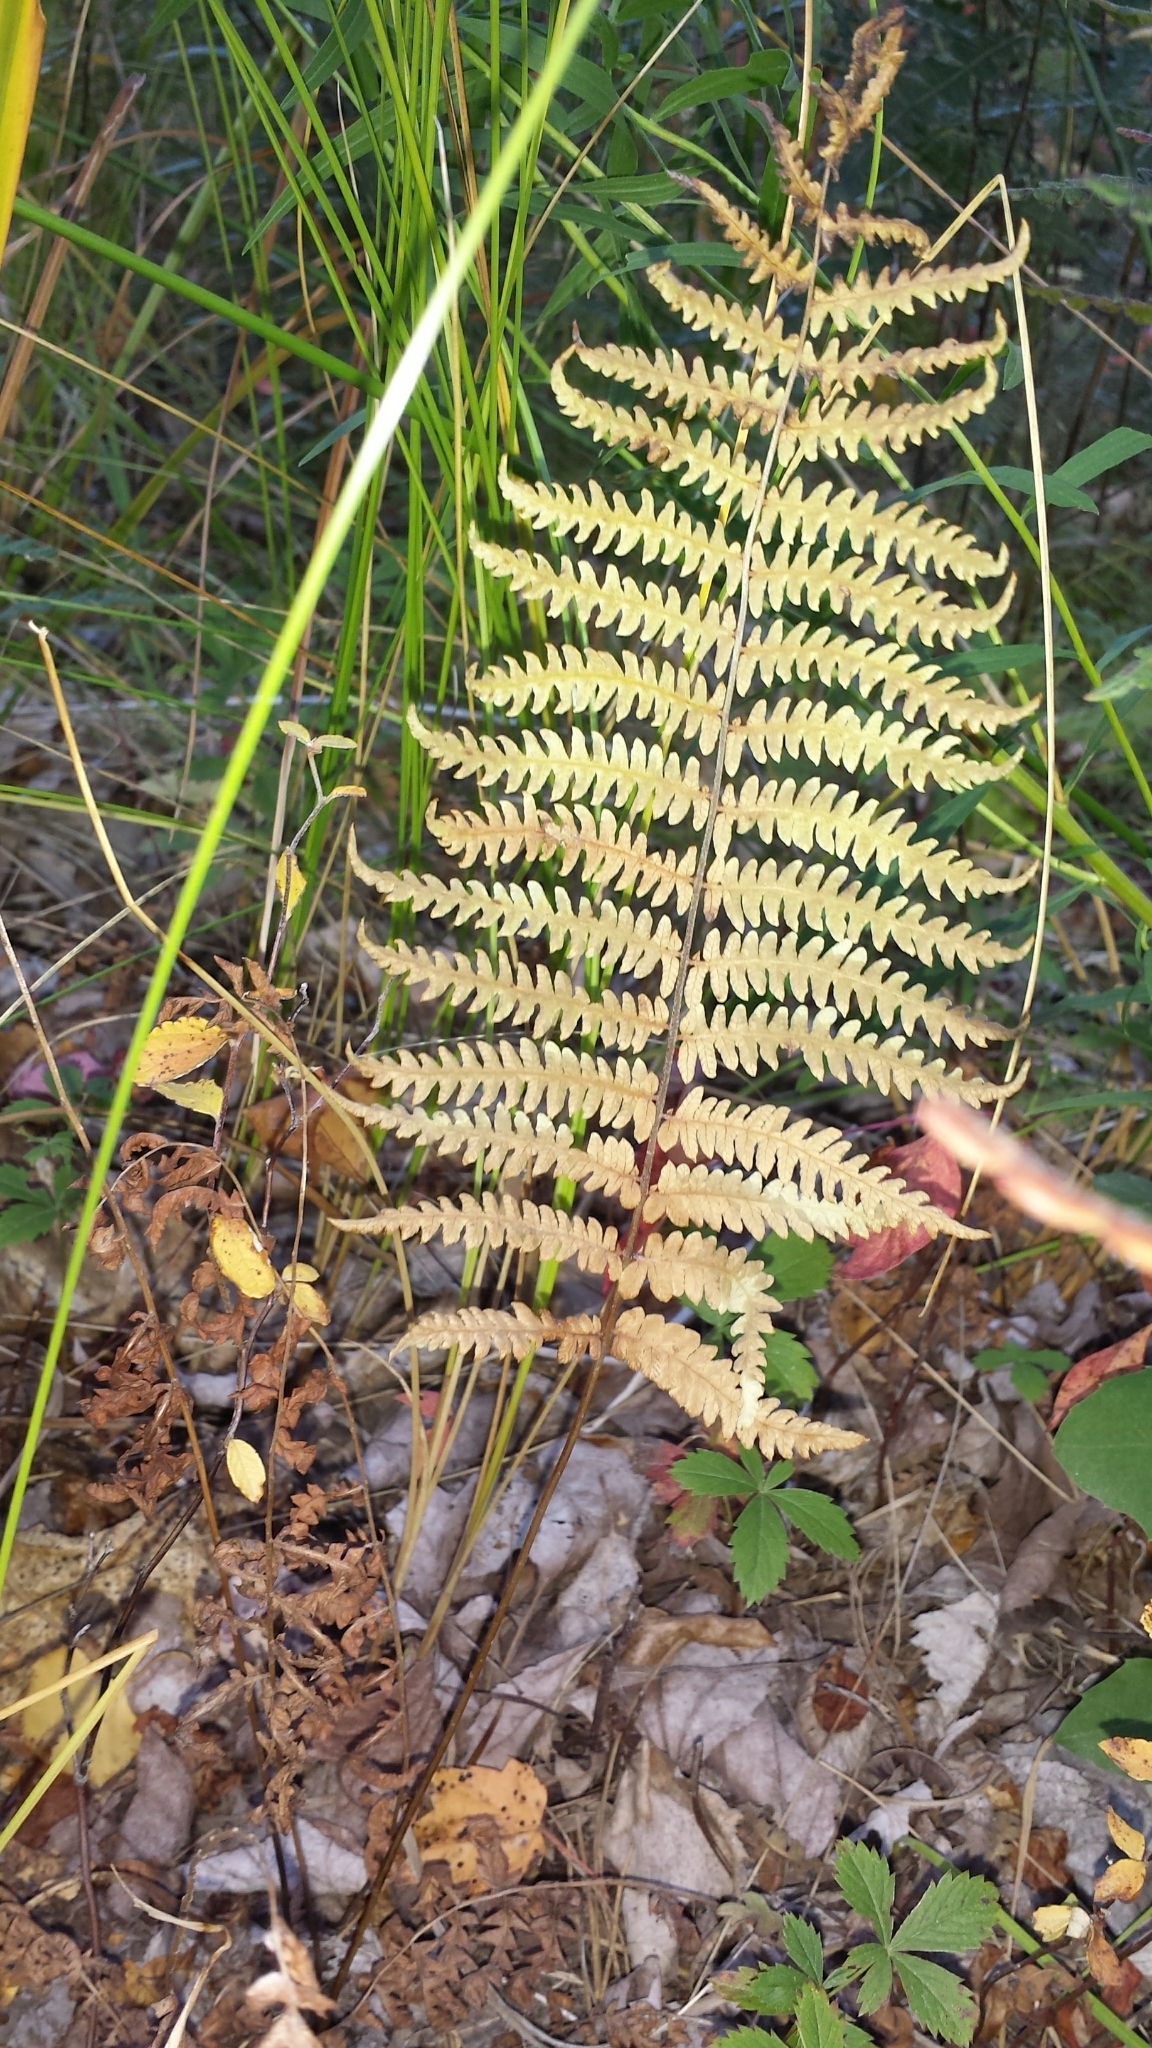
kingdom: Plantae
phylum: Tracheophyta
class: Polypodiopsida
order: Polypodiales
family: Thelypteridaceae
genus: Thelypteris
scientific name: Thelypteris palustris
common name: Marsh fern
